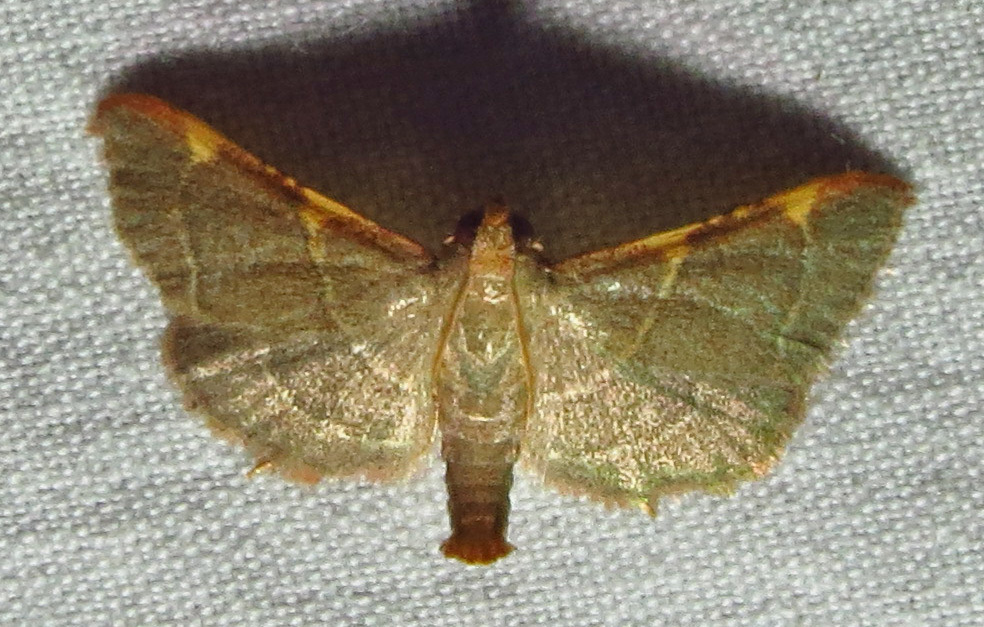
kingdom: Animalia
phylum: Arthropoda
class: Insecta
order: Lepidoptera
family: Pyralidae
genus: Hypsopygia
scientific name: Hypsopygia binodulalis
